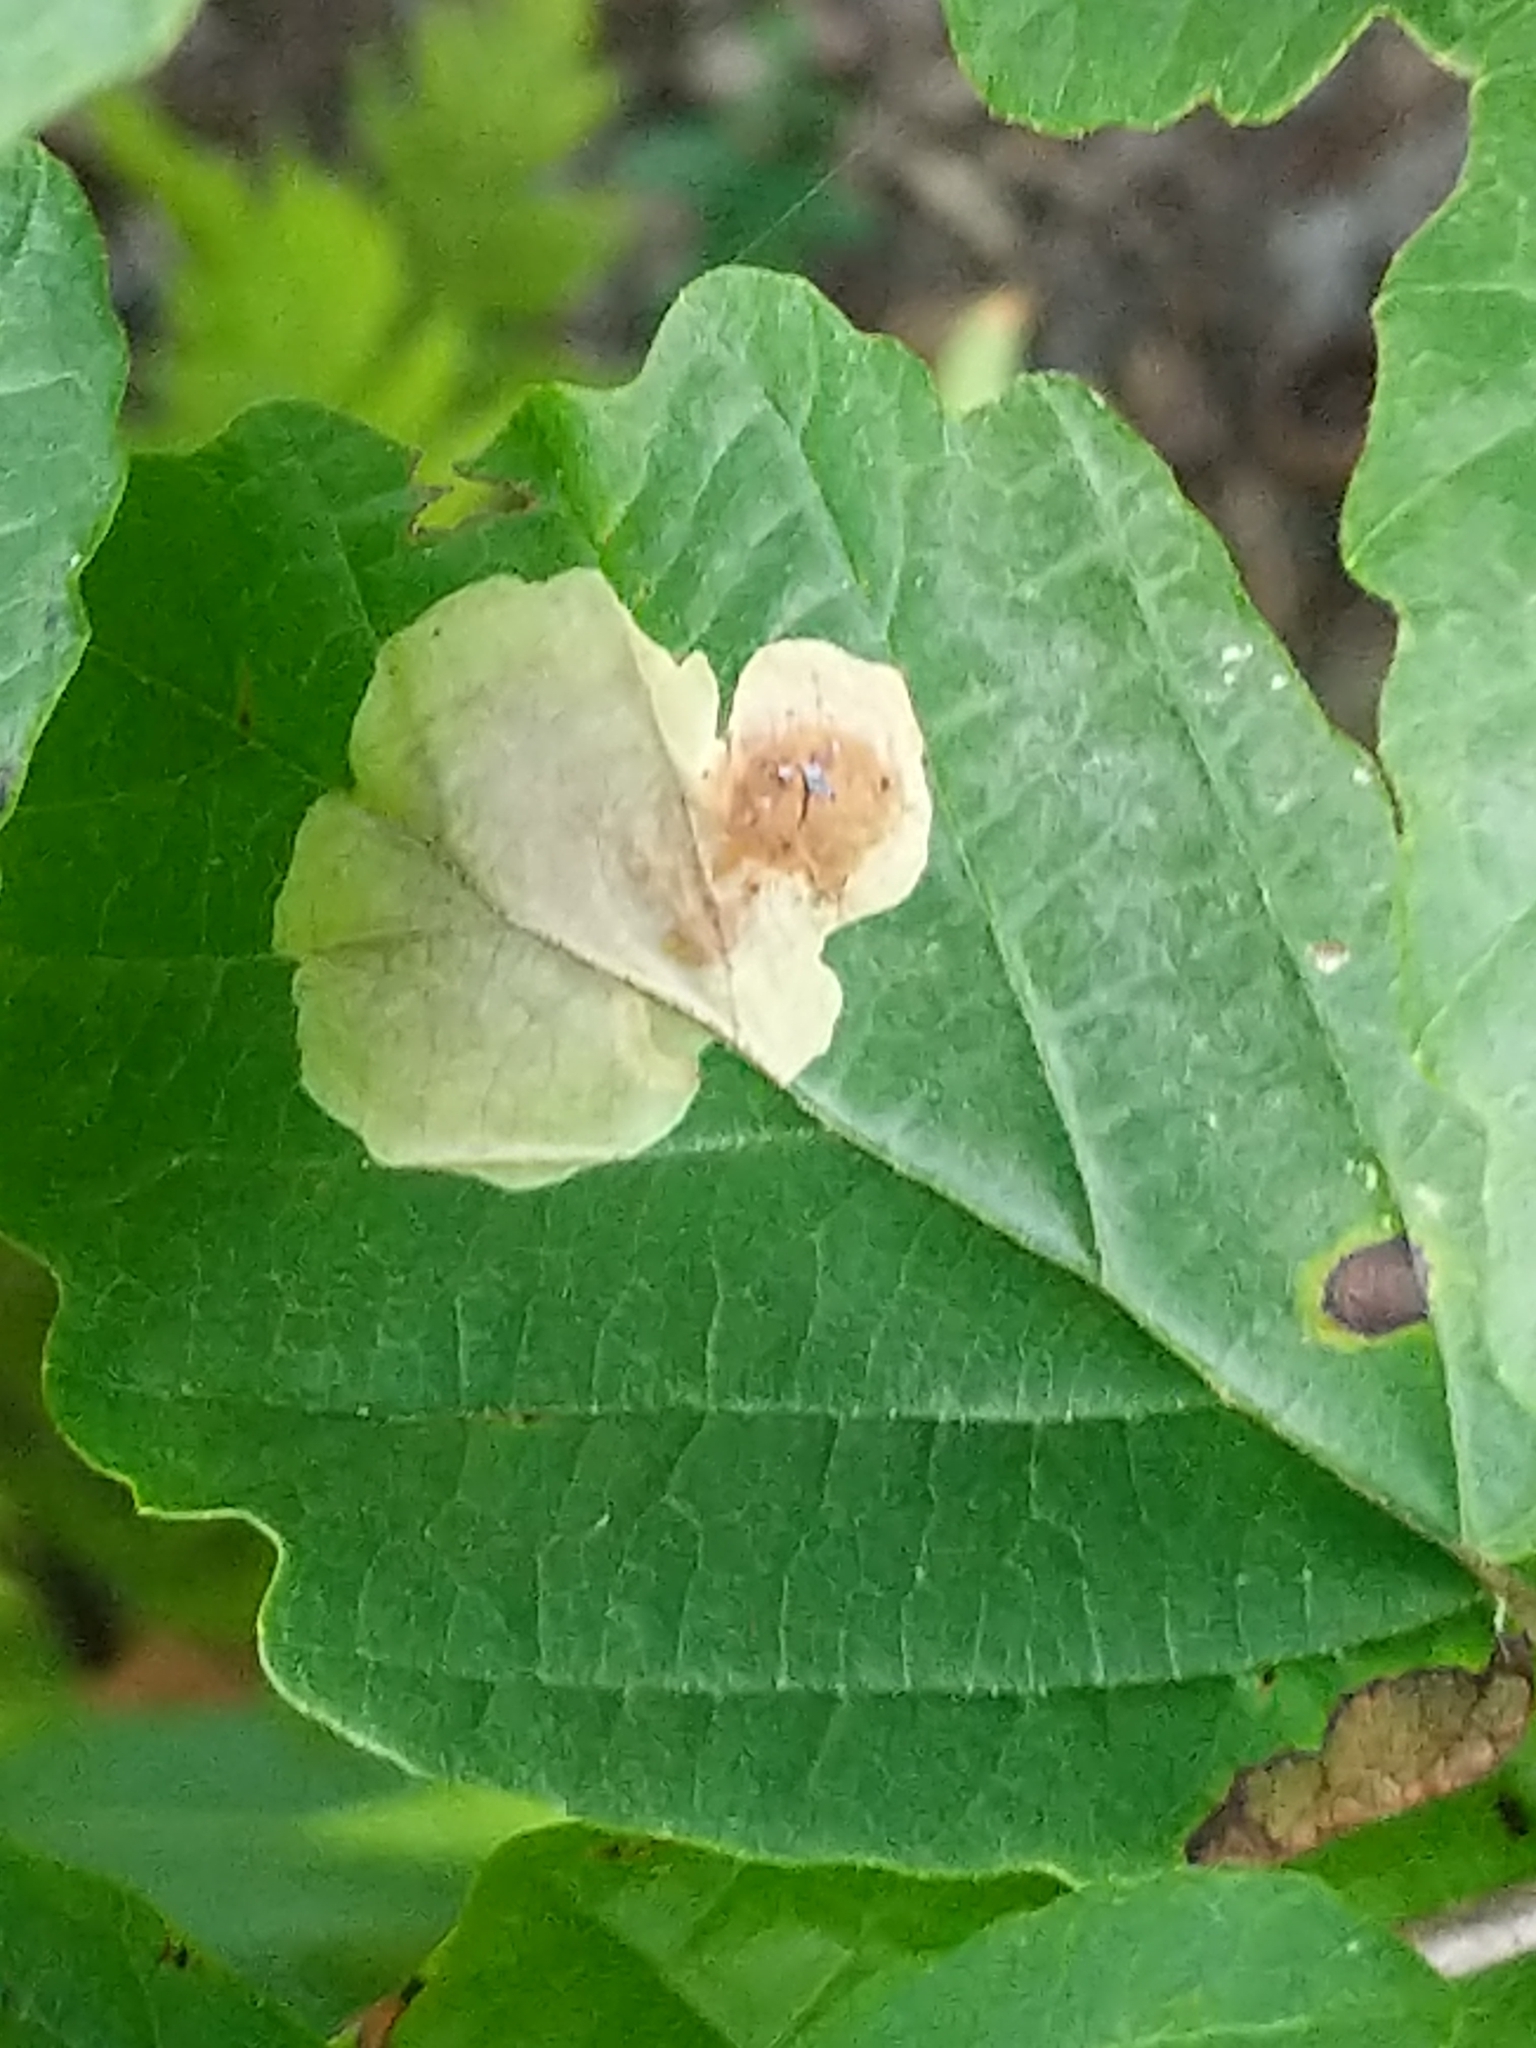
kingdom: Animalia
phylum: Arthropoda
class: Insecta
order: Lepidoptera
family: Gracillariidae
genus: Cameraria
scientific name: Cameraria hamameliella
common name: Witchhazel leafminer
